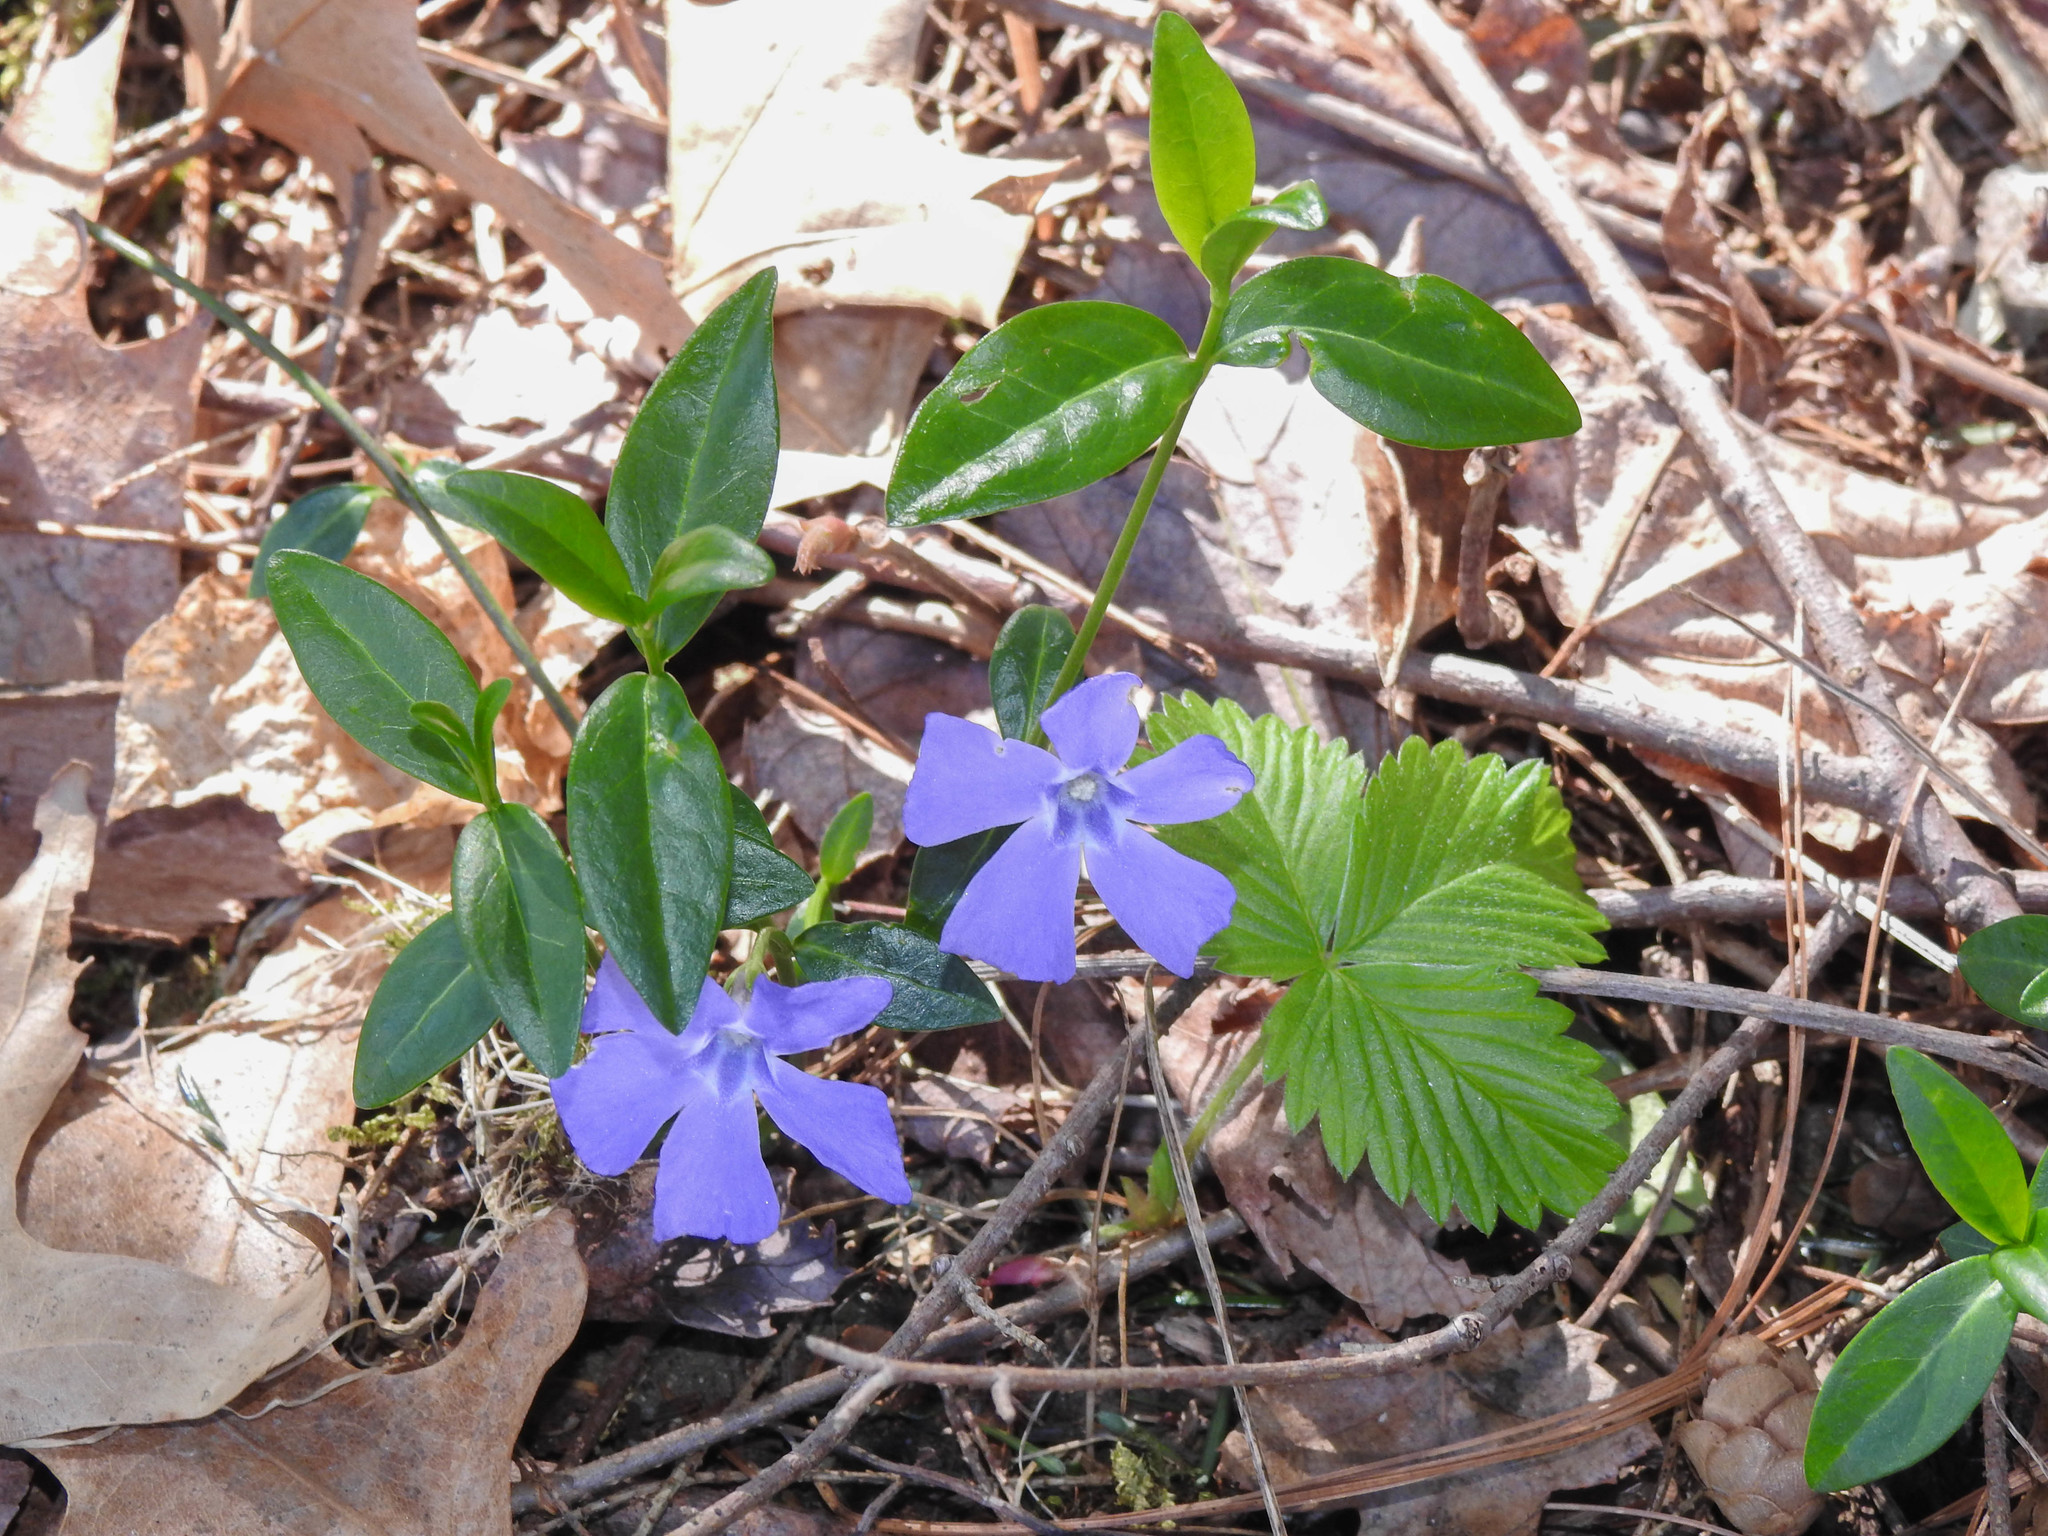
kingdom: Plantae
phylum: Tracheophyta
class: Magnoliopsida
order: Gentianales
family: Apocynaceae
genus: Vinca
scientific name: Vinca minor
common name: Lesser periwinkle
